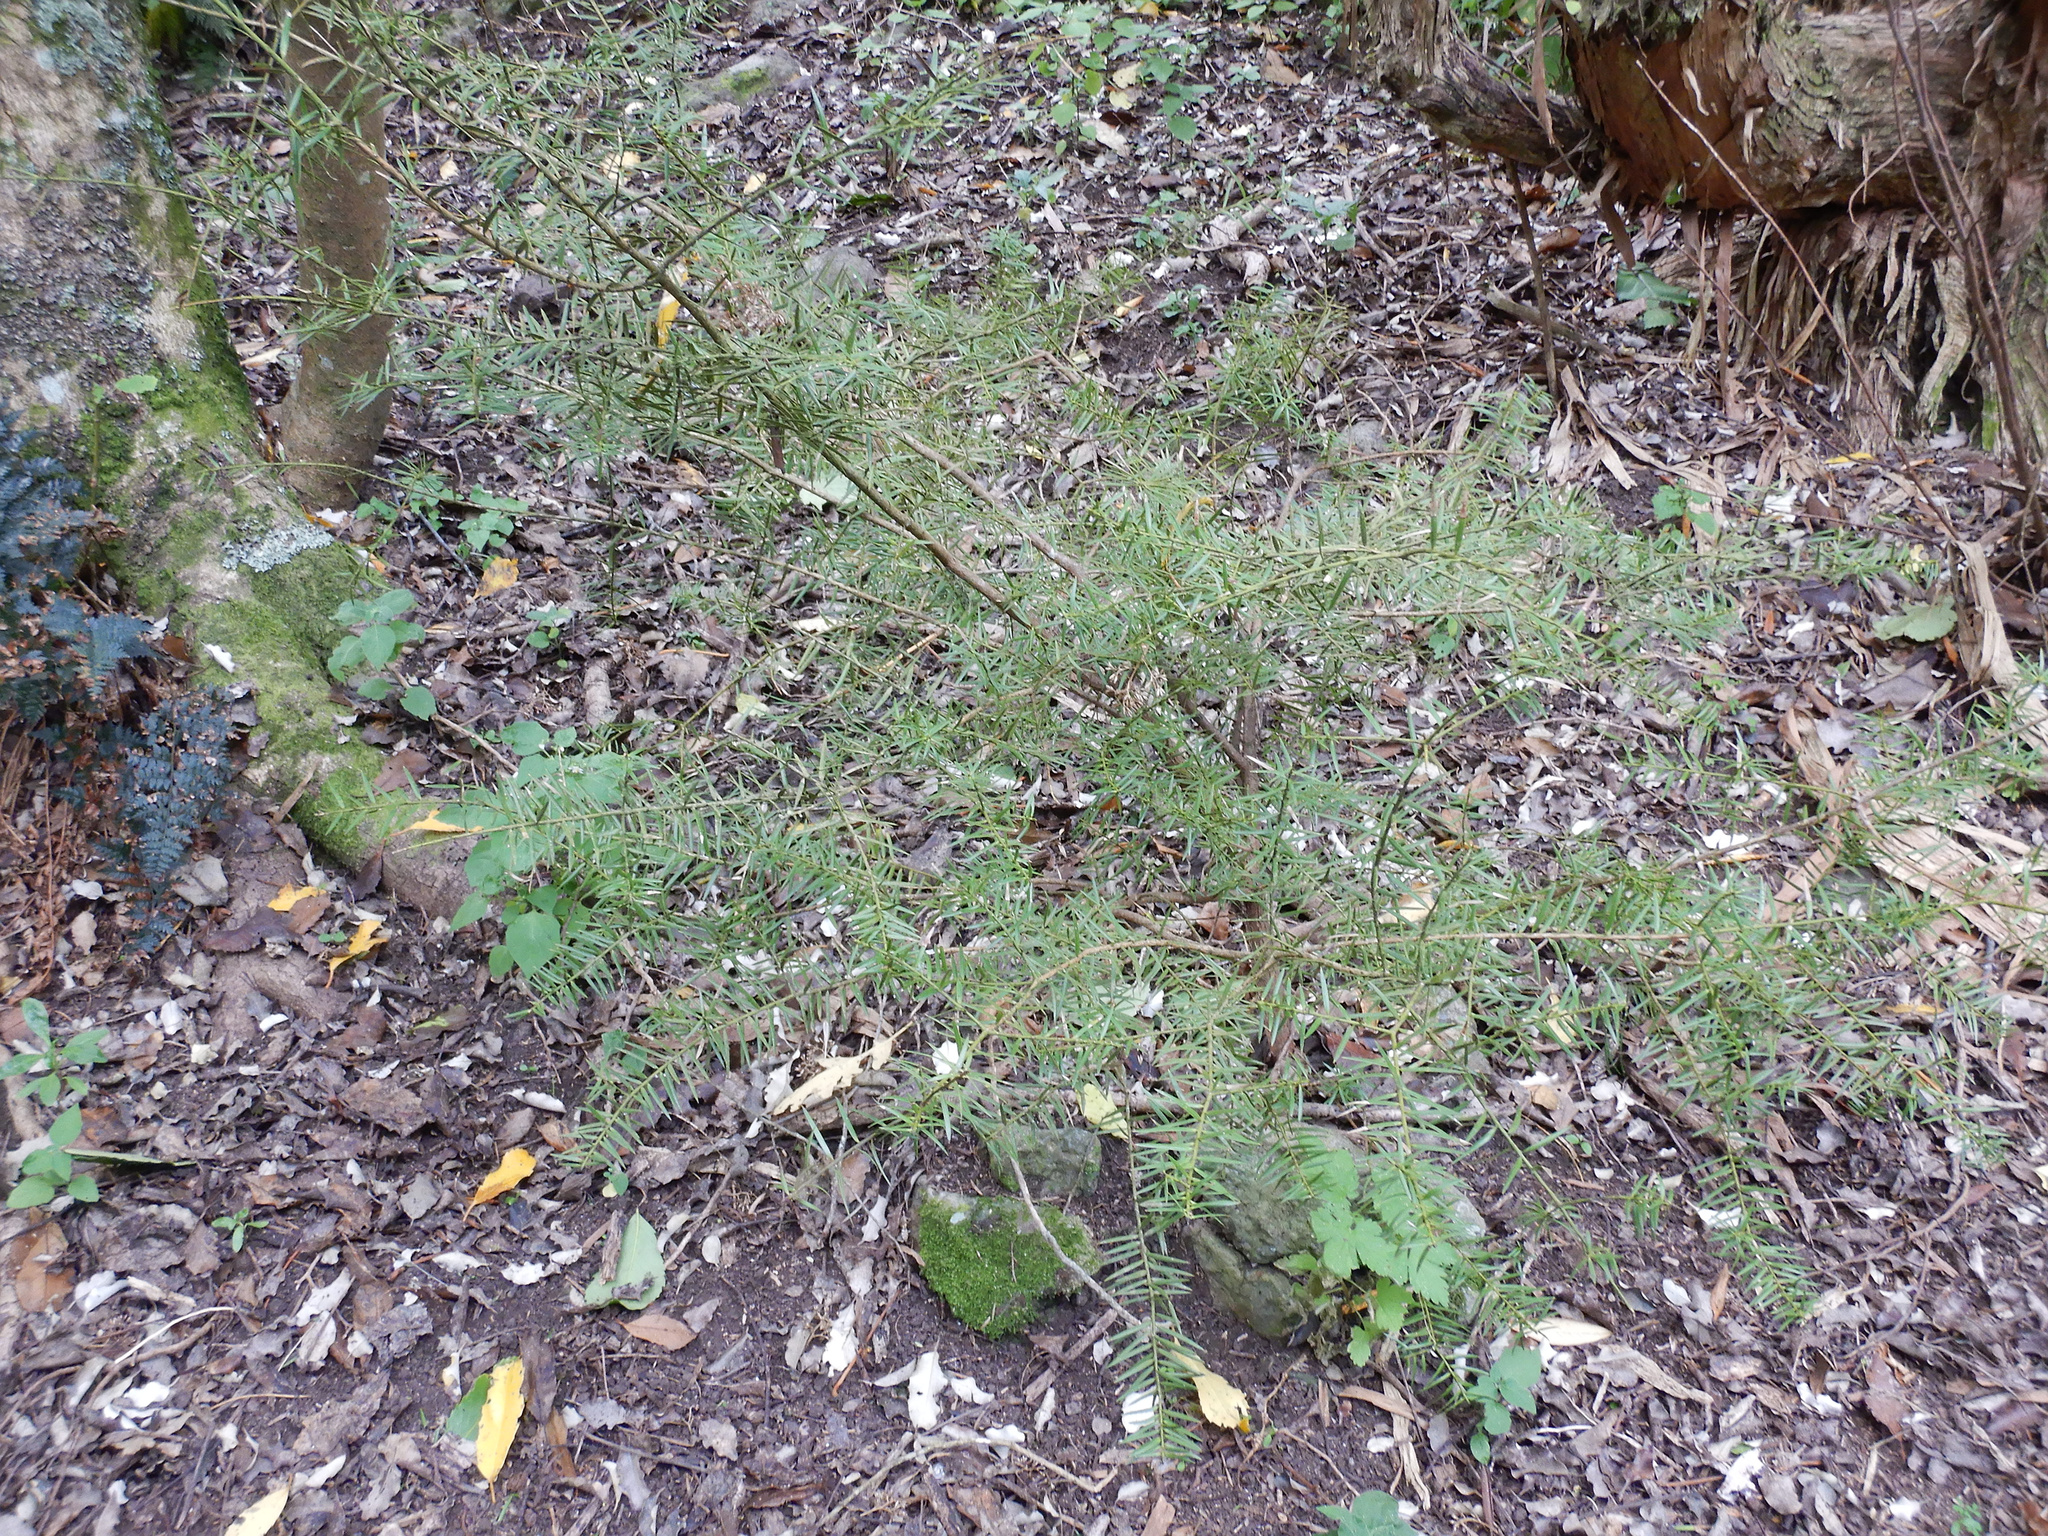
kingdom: Plantae
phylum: Tracheophyta
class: Pinopsida
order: Pinales
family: Podocarpaceae
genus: Podocarpus
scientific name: Podocarpus totara
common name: Totara
